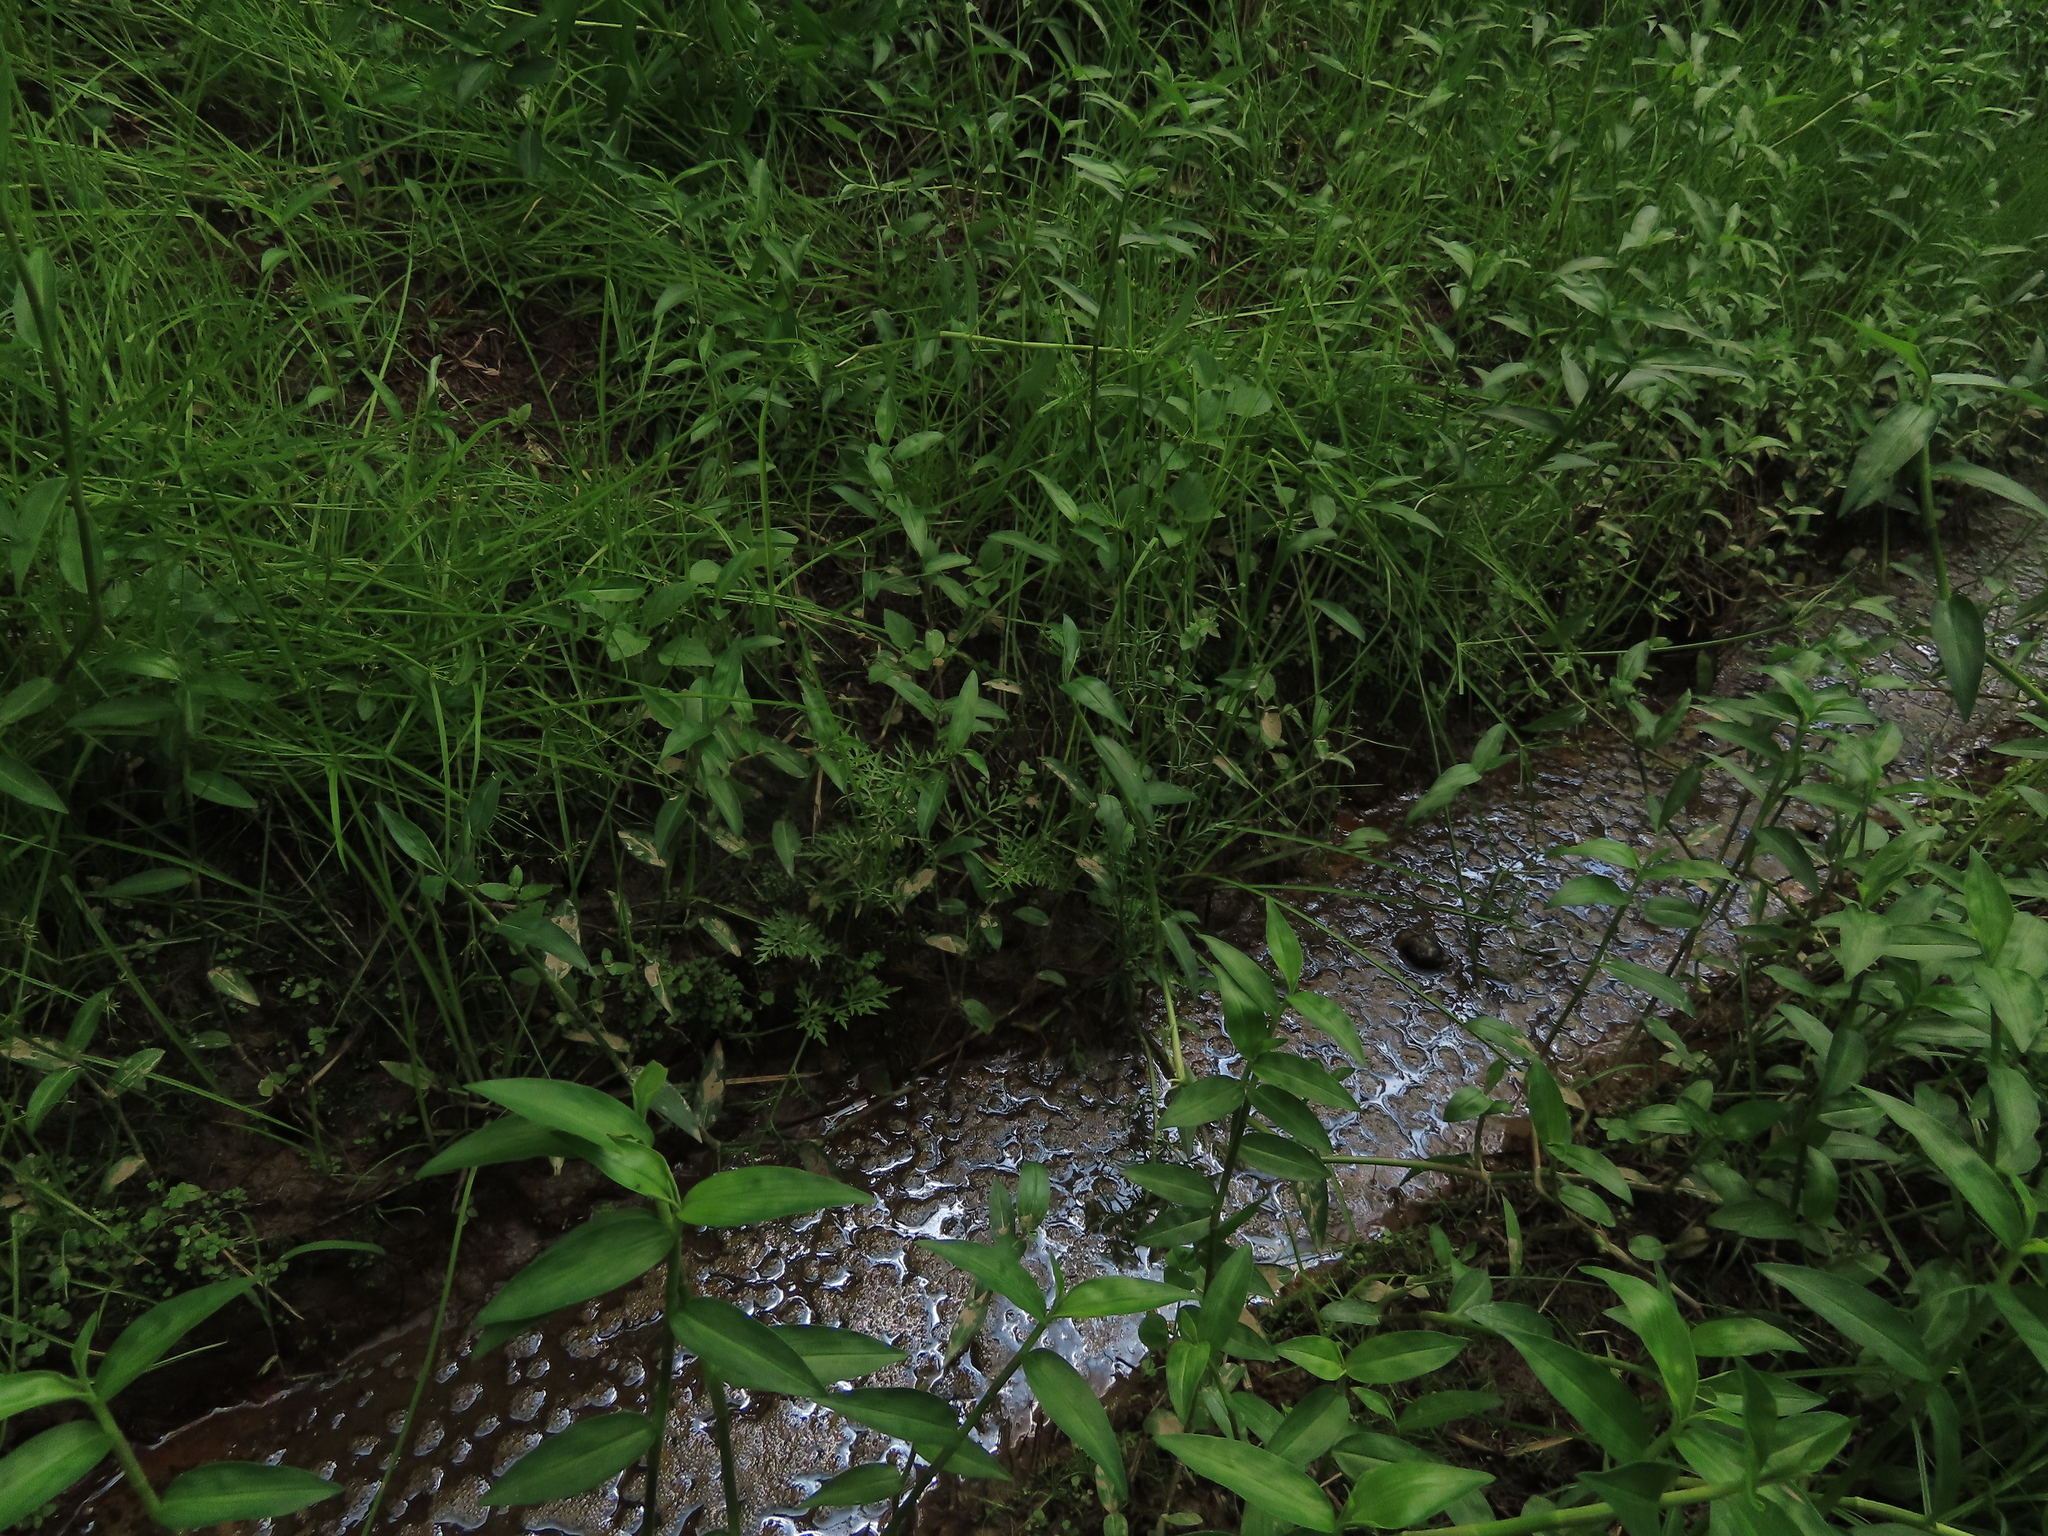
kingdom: Plantae
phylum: Tracheophyta
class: Polypodiopsida
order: Polypodiales
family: Pteridaceae
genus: Ceratopteris
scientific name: Ceratopteris thalictroides
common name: Water fern
